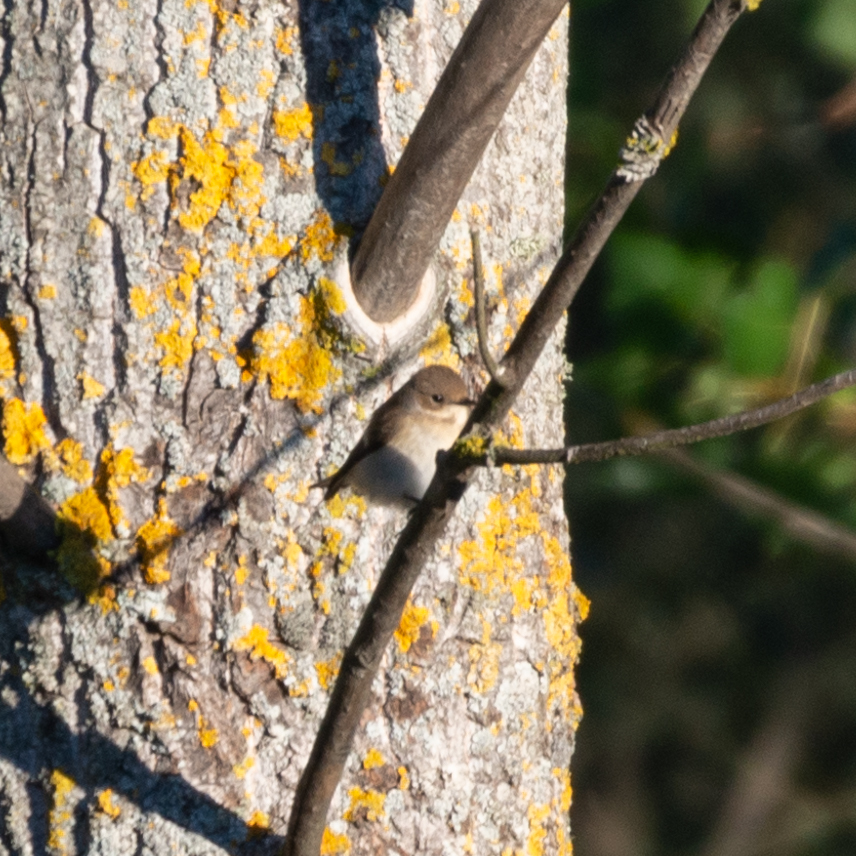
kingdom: Animalia
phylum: Chordata
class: Aves
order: Passeriformes
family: Muscicapidae
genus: Ficedula
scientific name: Ficedula hypoleuca
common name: European pied flycatcher
